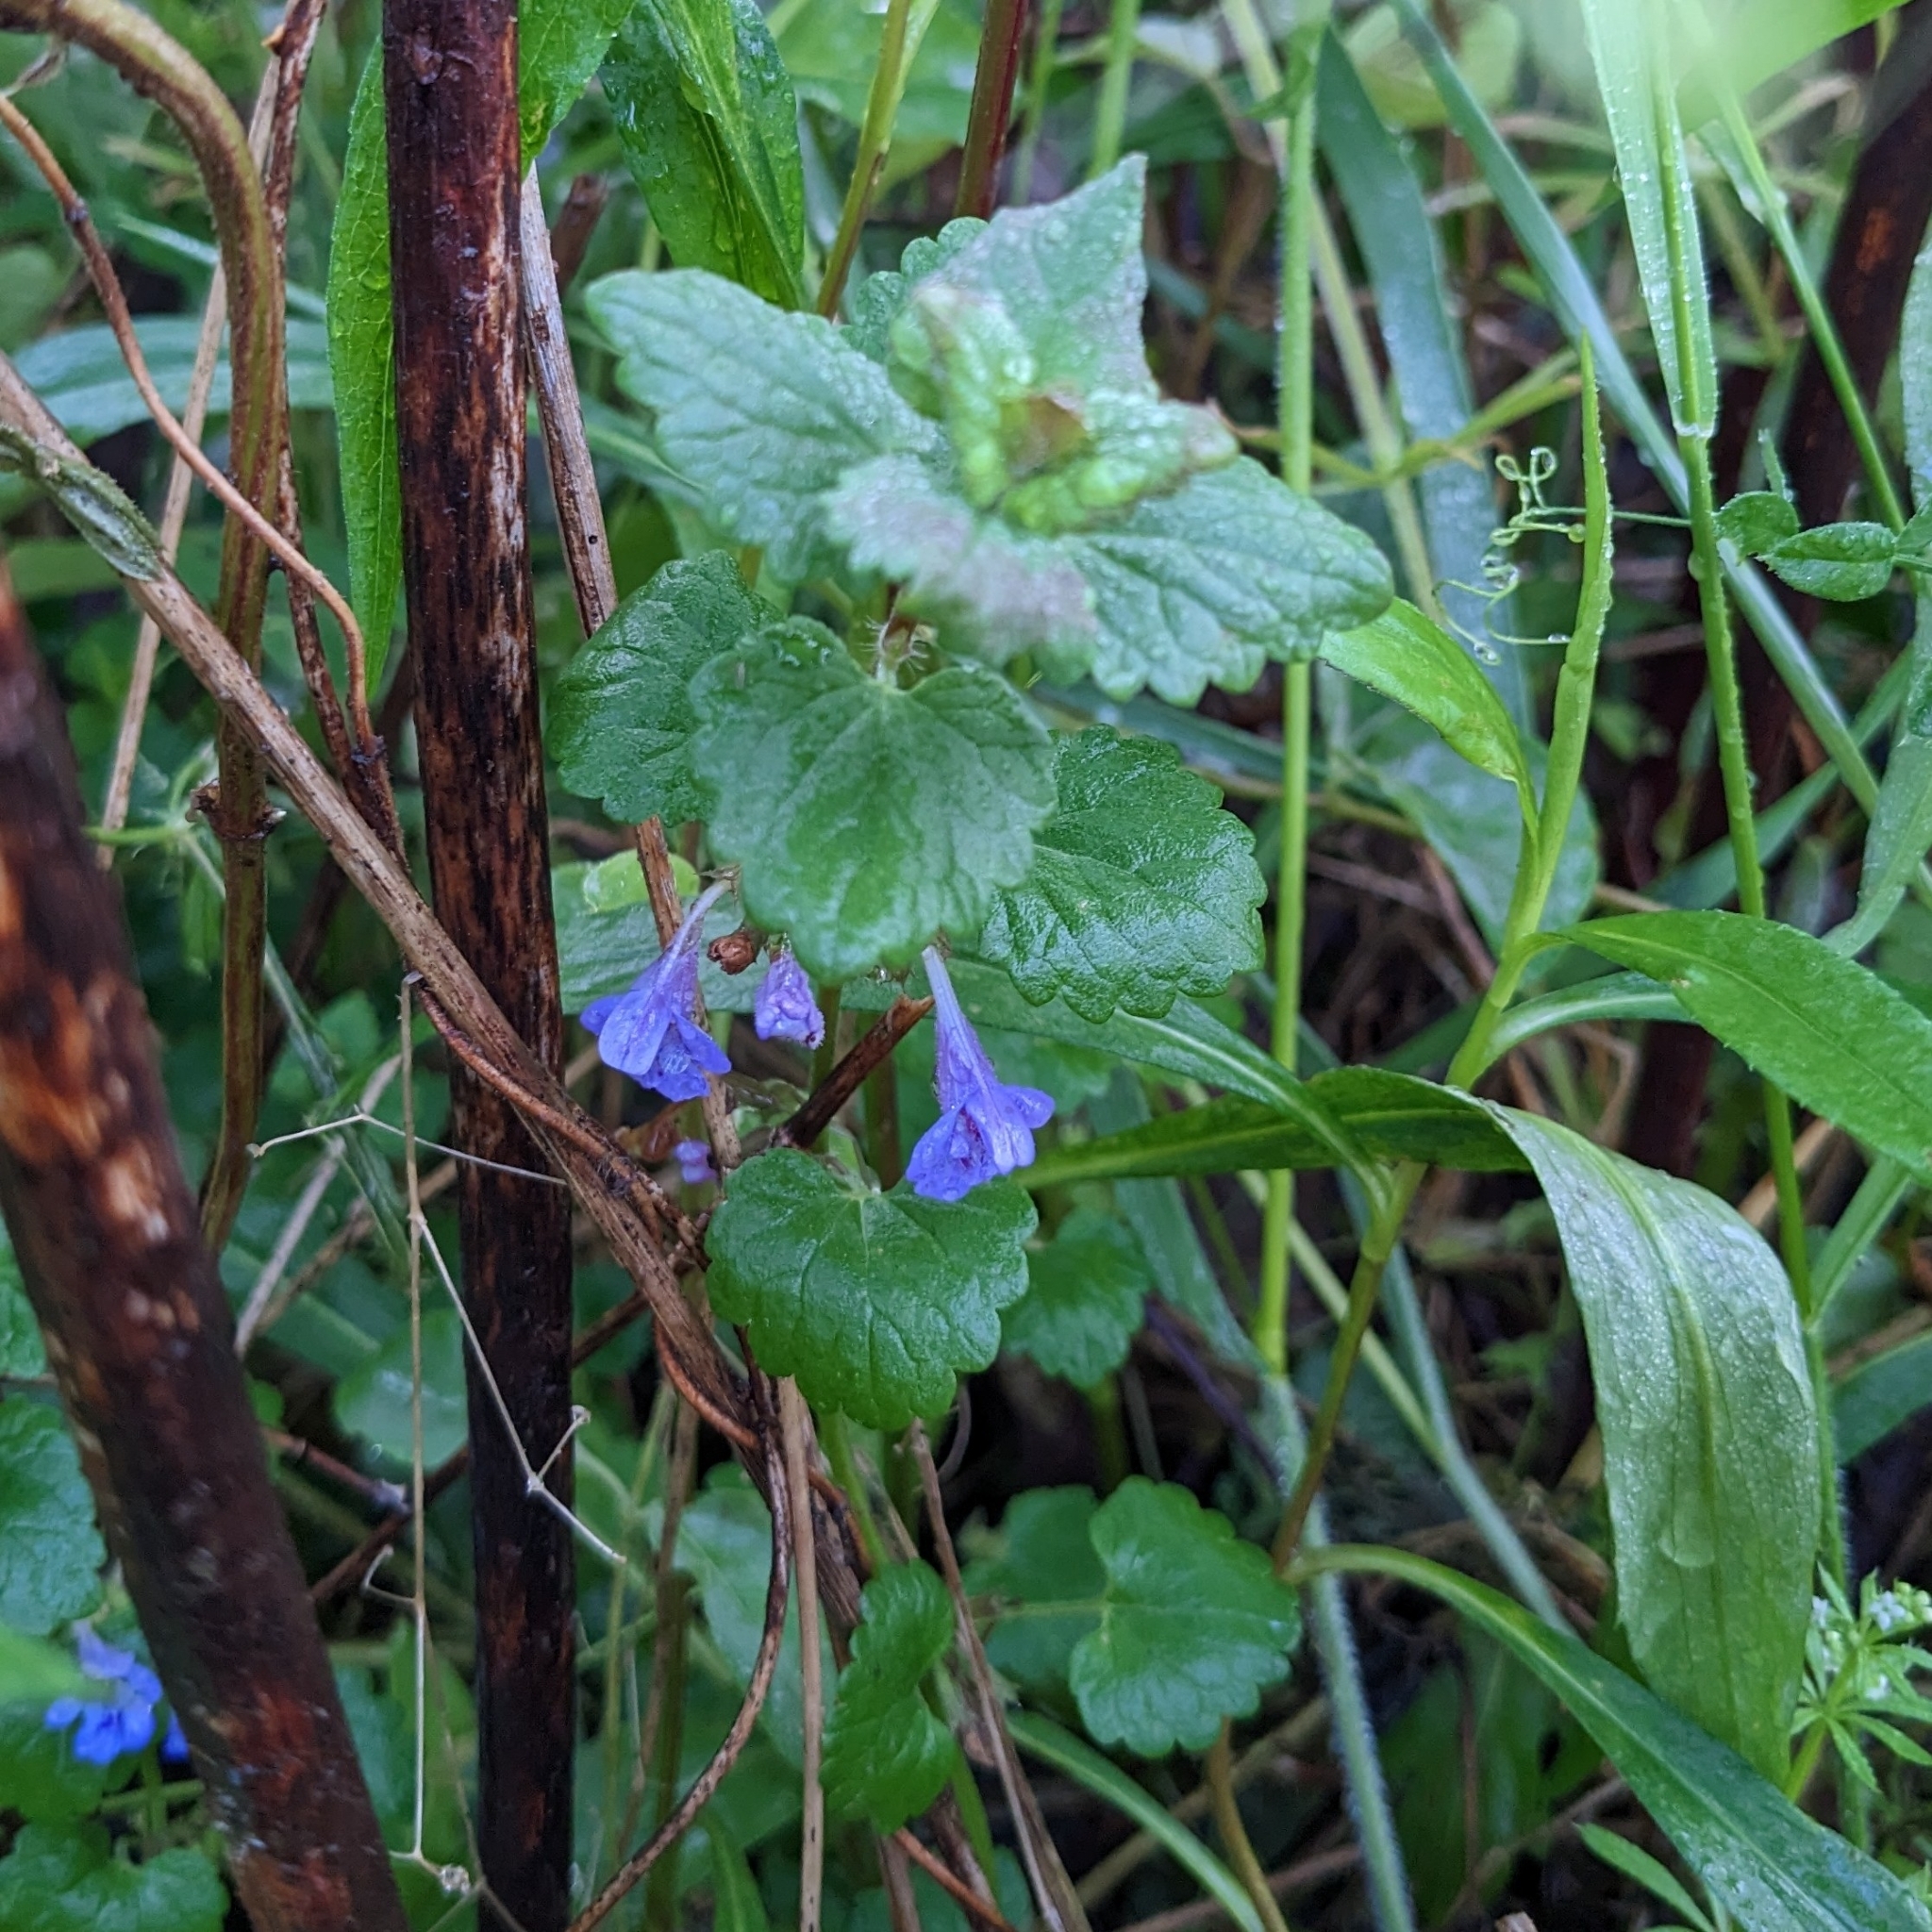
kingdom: Plantae
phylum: Tracheophyta
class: Magnoliopsida
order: Lamiales
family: Lamiaceae
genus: Glechoma
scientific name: Glechoma hederacea
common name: Ground ivy
